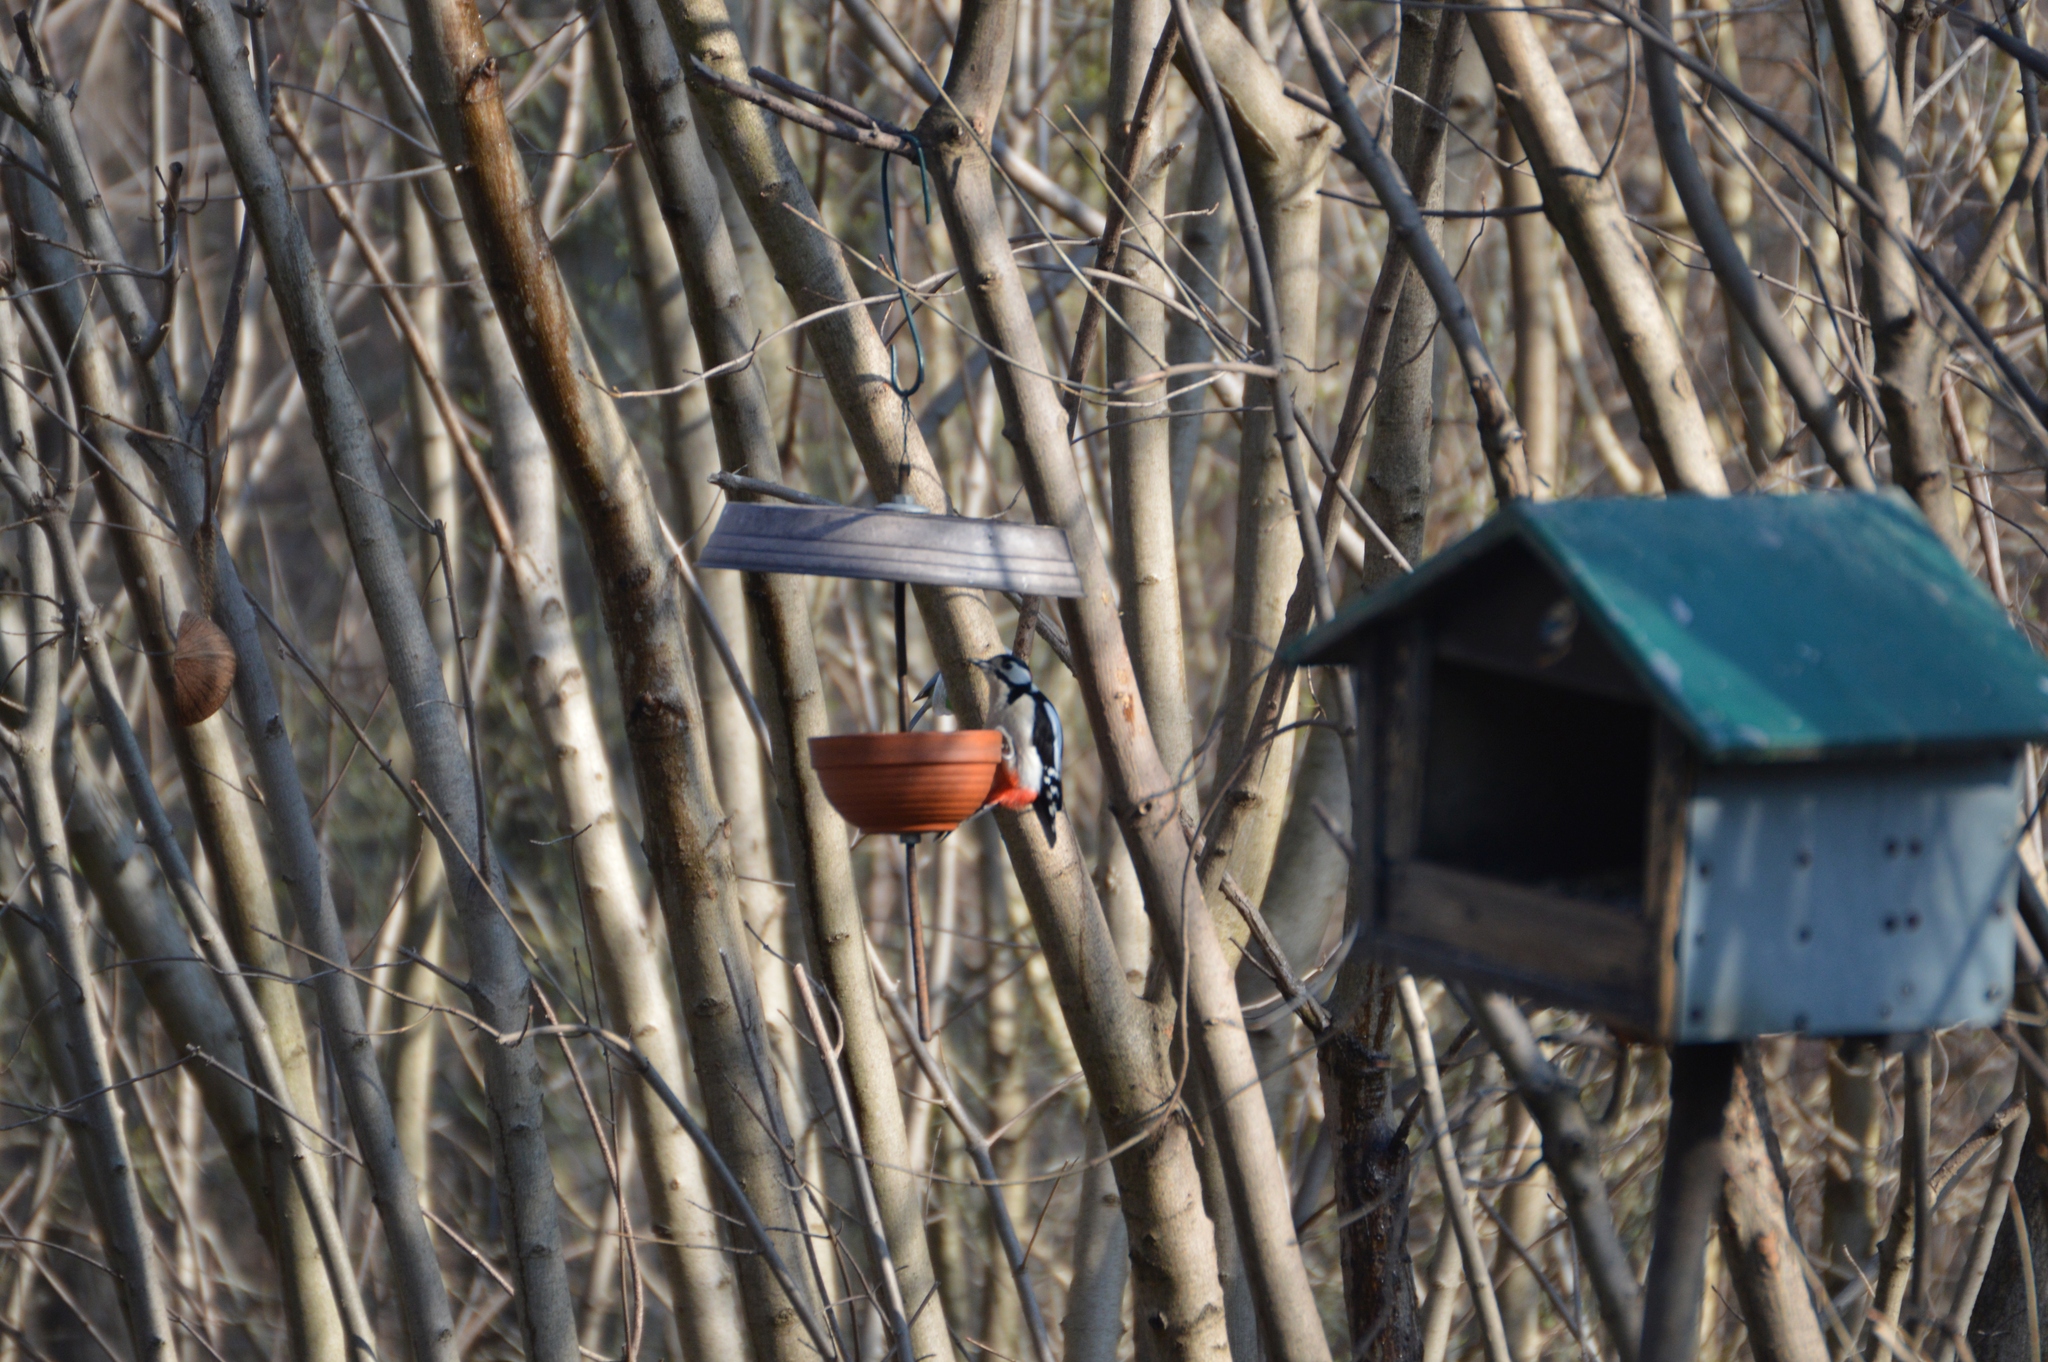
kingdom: Animalia
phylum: Chordata
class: Aves
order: Piciformes
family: Picidae
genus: Dendrocopos
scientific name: Dendrocopos major
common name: Great spotted woodpecker
